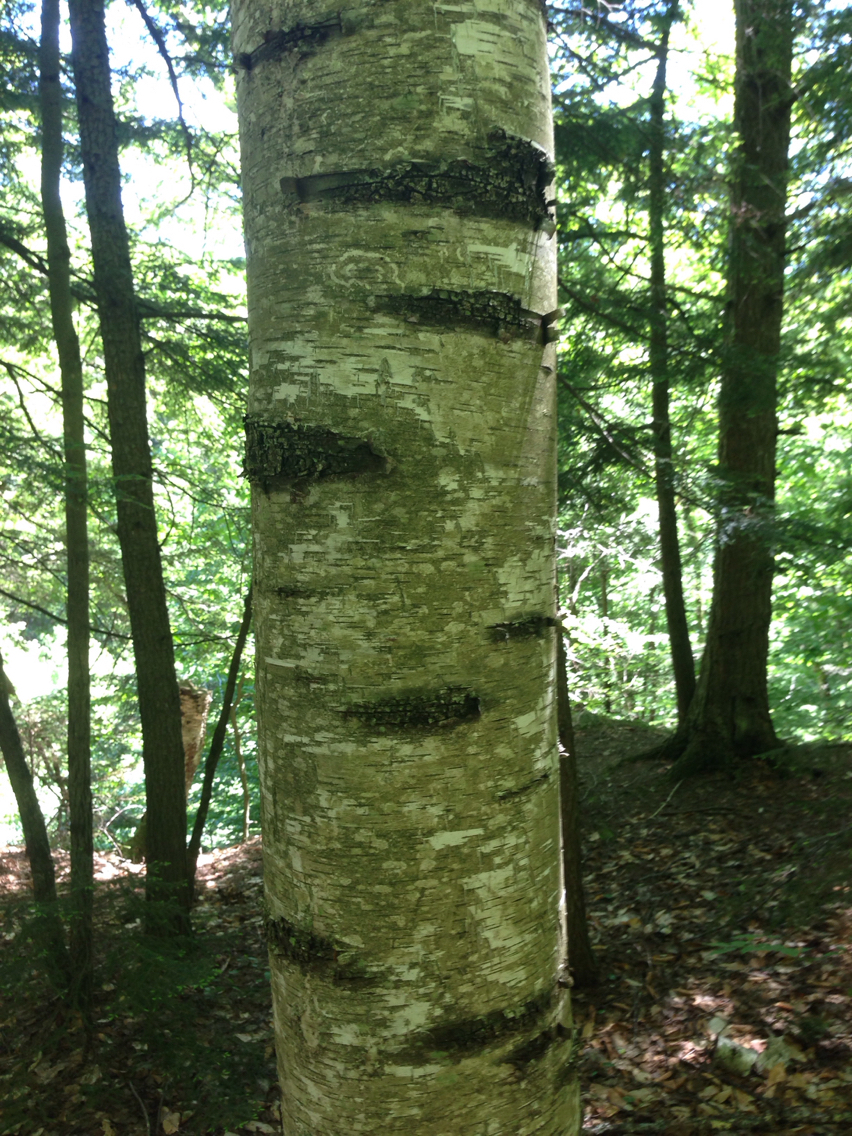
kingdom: Plantae
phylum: Tracheophyta
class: Magnoliopsida
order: Fagales
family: Betulaceae
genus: Betula
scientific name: Betula populifolia
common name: Fire birch
